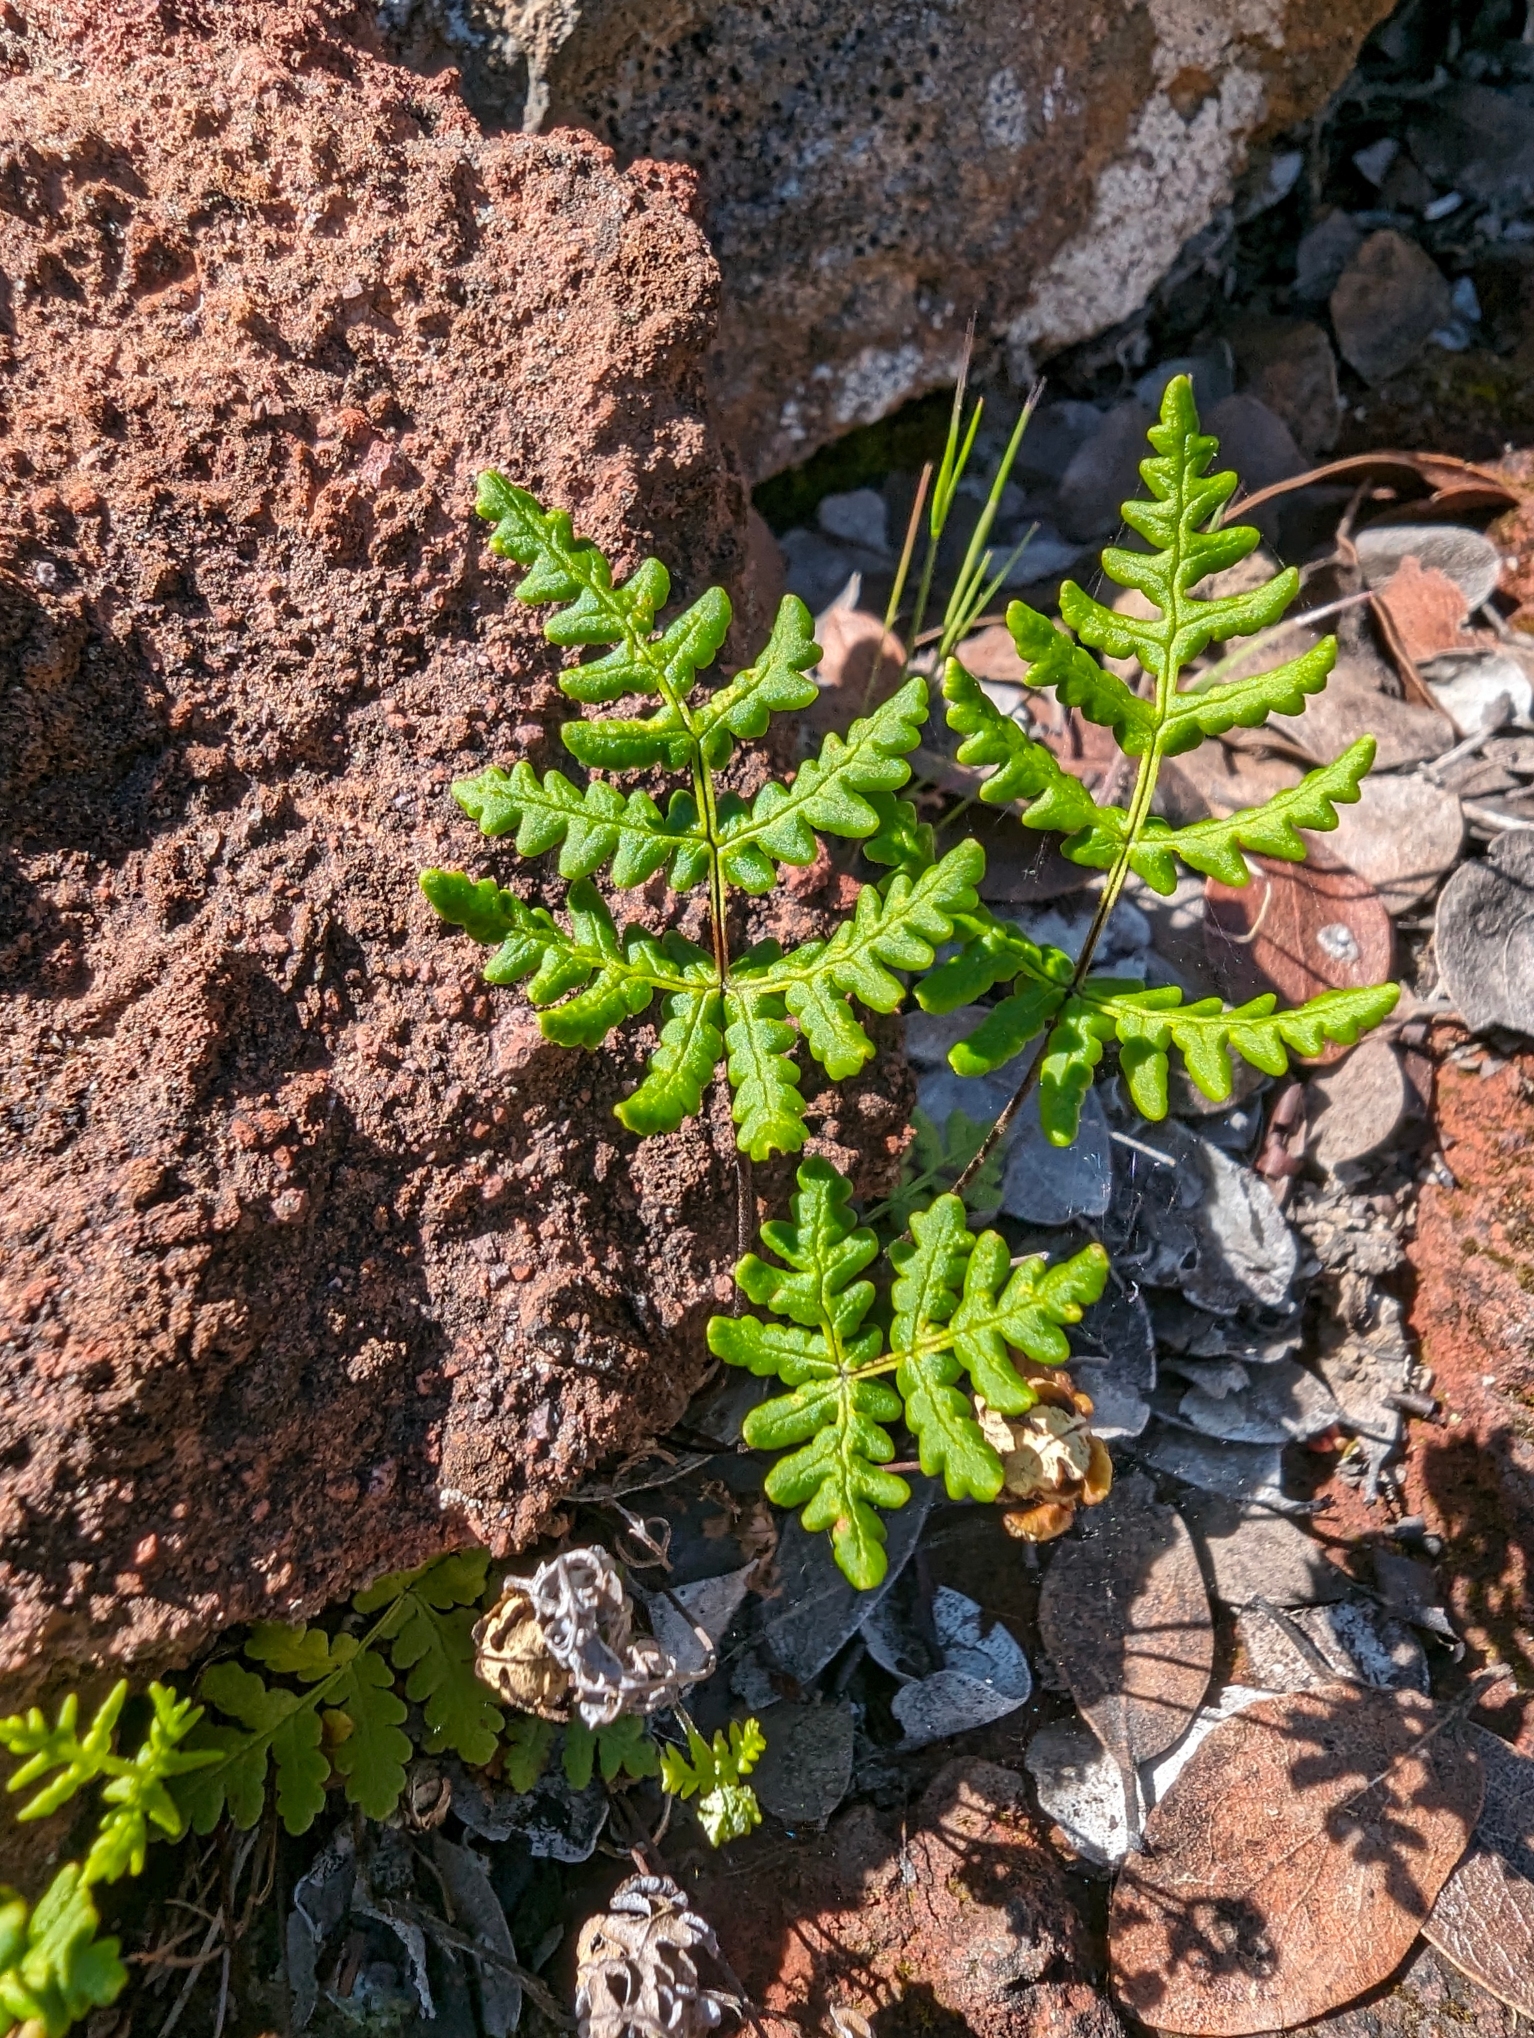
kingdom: Plantae
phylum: Tracheophyta
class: Polypodiopsida
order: Polypodiales
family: Pteridaceae
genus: Pentagramma
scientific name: Pentagramma triangularis
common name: Gold fern
